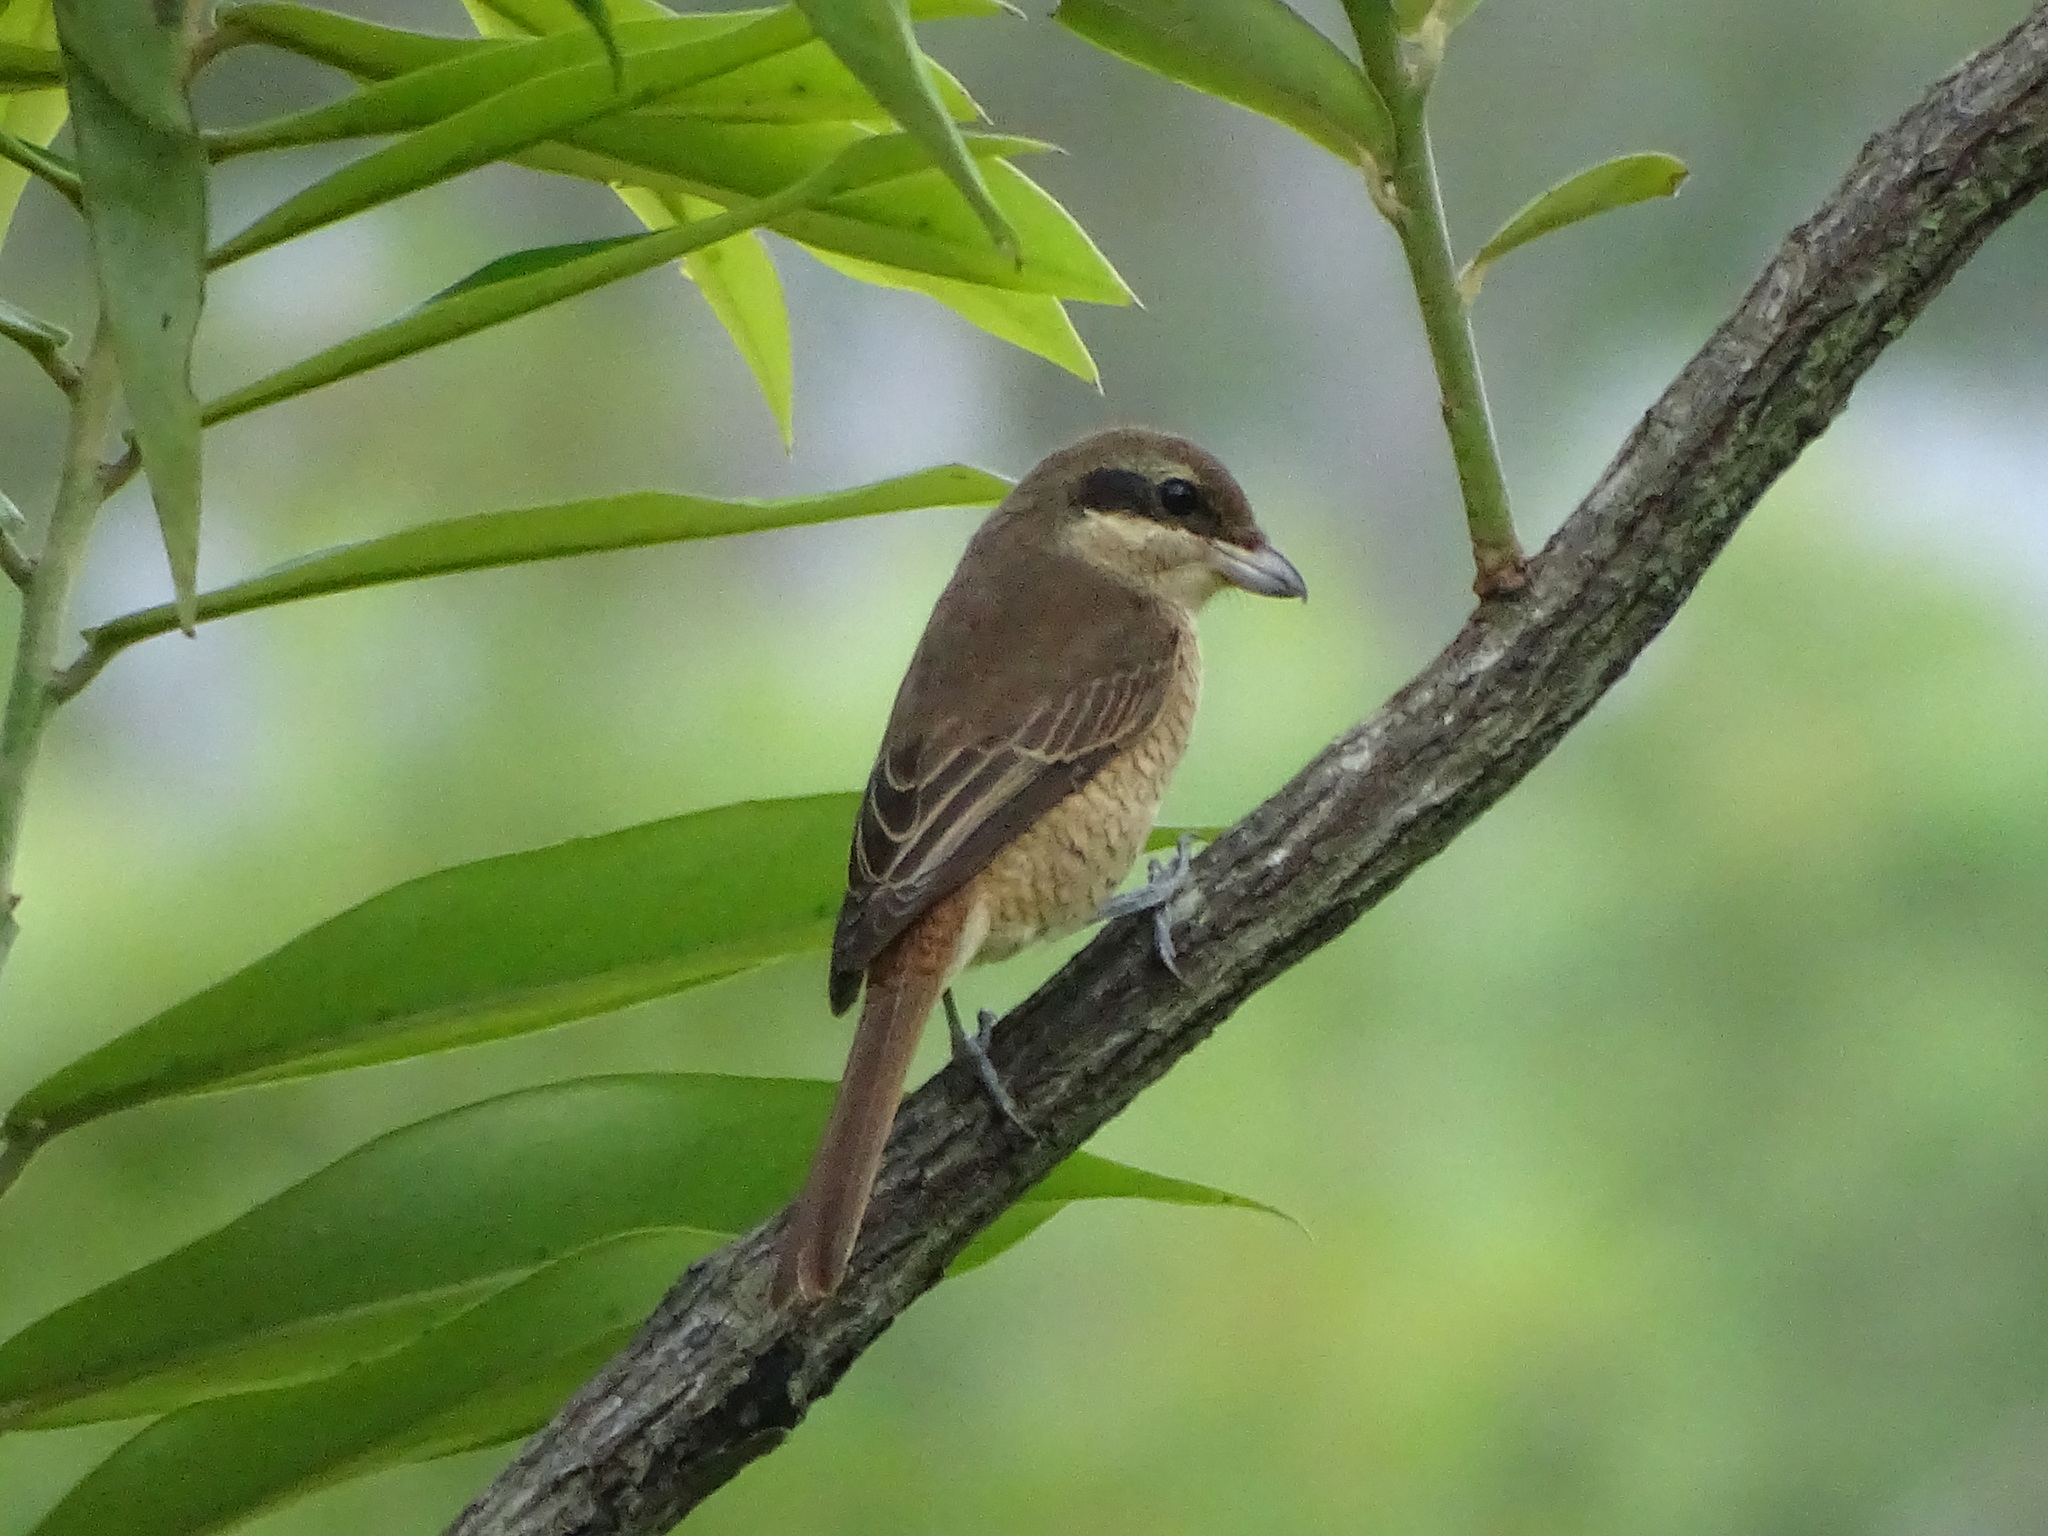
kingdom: Animalia
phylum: Chordata
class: Aves
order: Passeriformes
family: Laniidae
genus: Lanius
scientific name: Lanius cristatus
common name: Brown shrike
